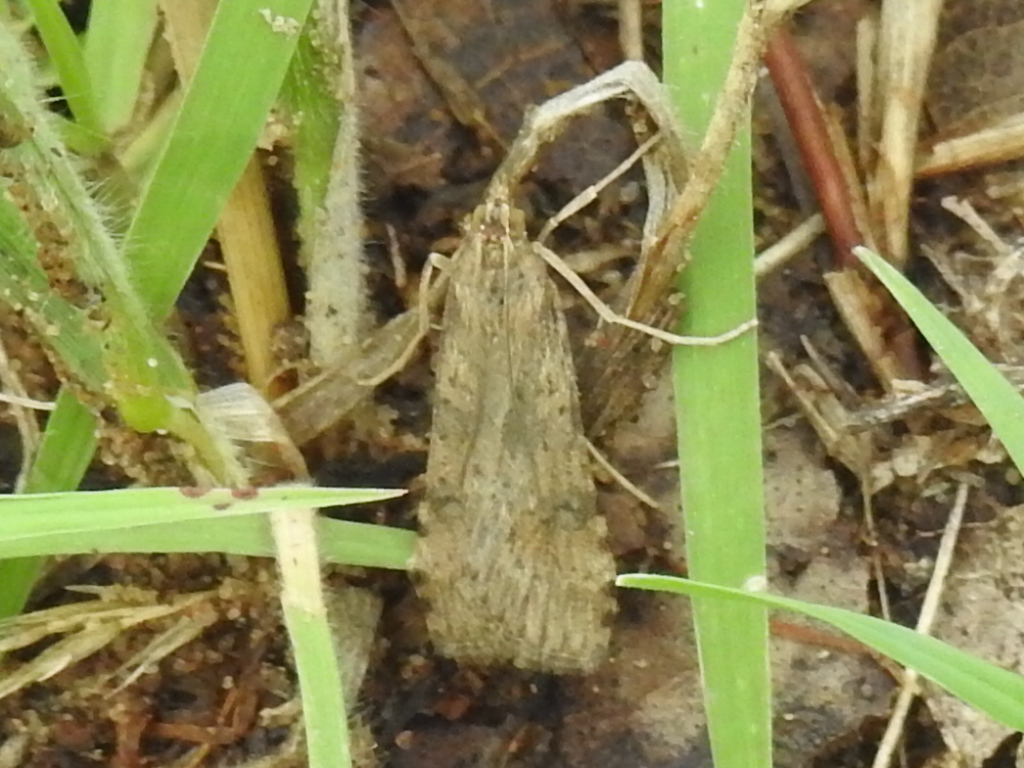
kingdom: Animalia
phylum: Arthropoda
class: Insecta
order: Lepidoptera
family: Crambidae
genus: Nomophila
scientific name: Nomophila nearctica
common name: American rush veneer
